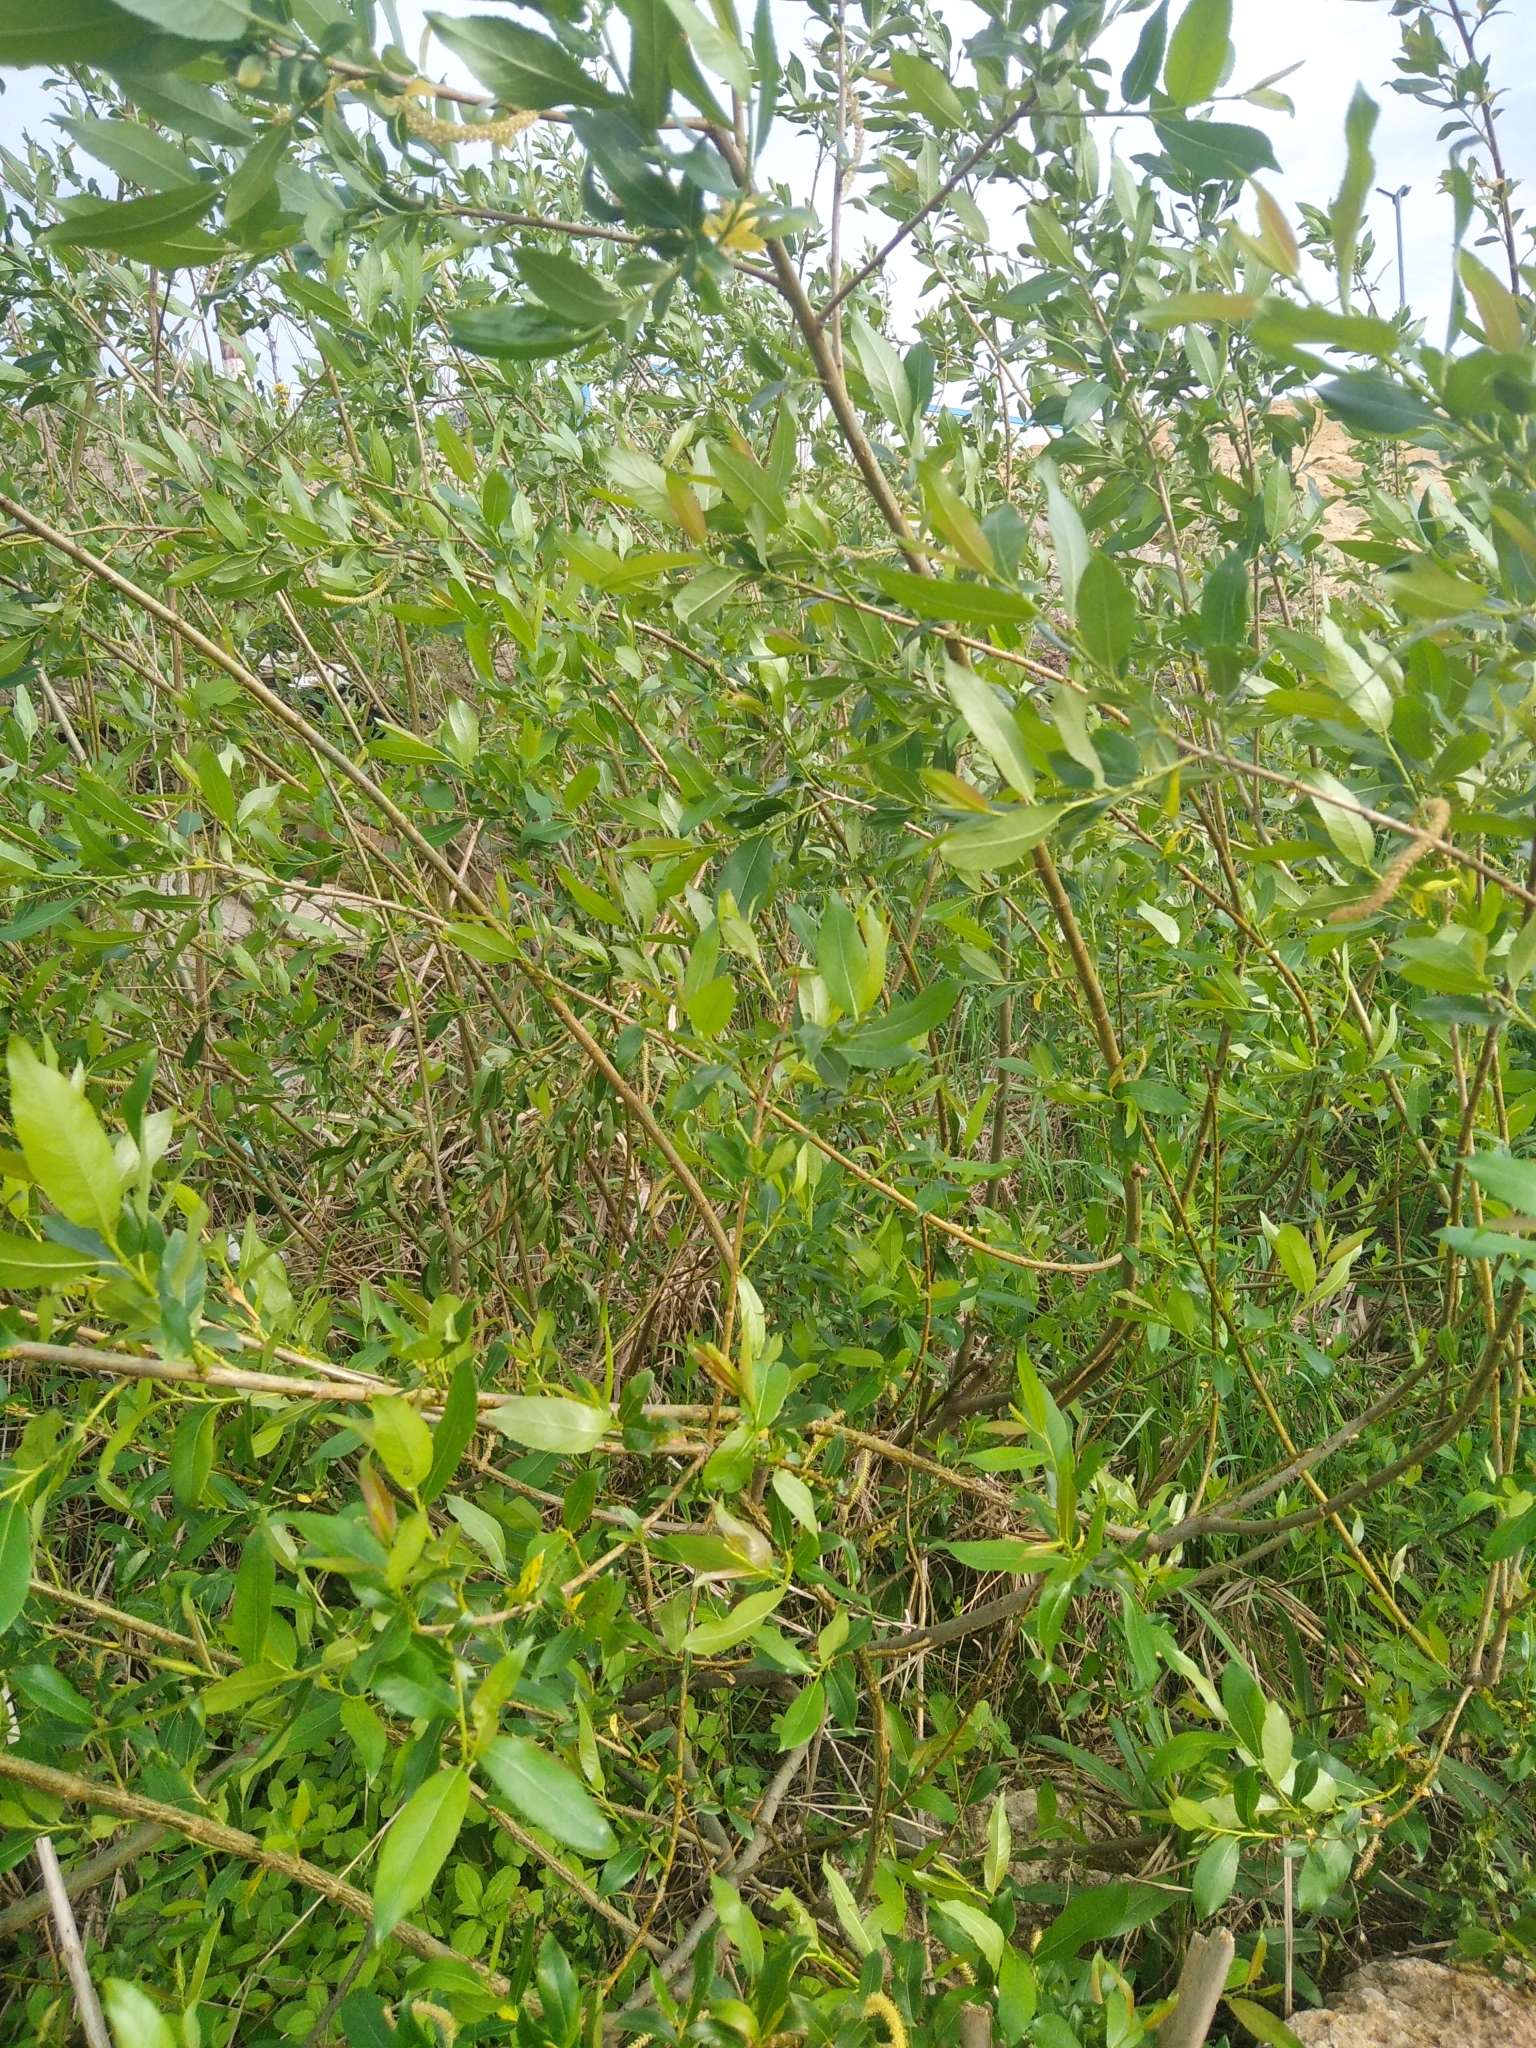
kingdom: Plantae
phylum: Tracheophyta
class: Magnoliopsida
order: Malpighiales
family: Salicaceae
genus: Salix
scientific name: Salix triandra
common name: Almond willow
